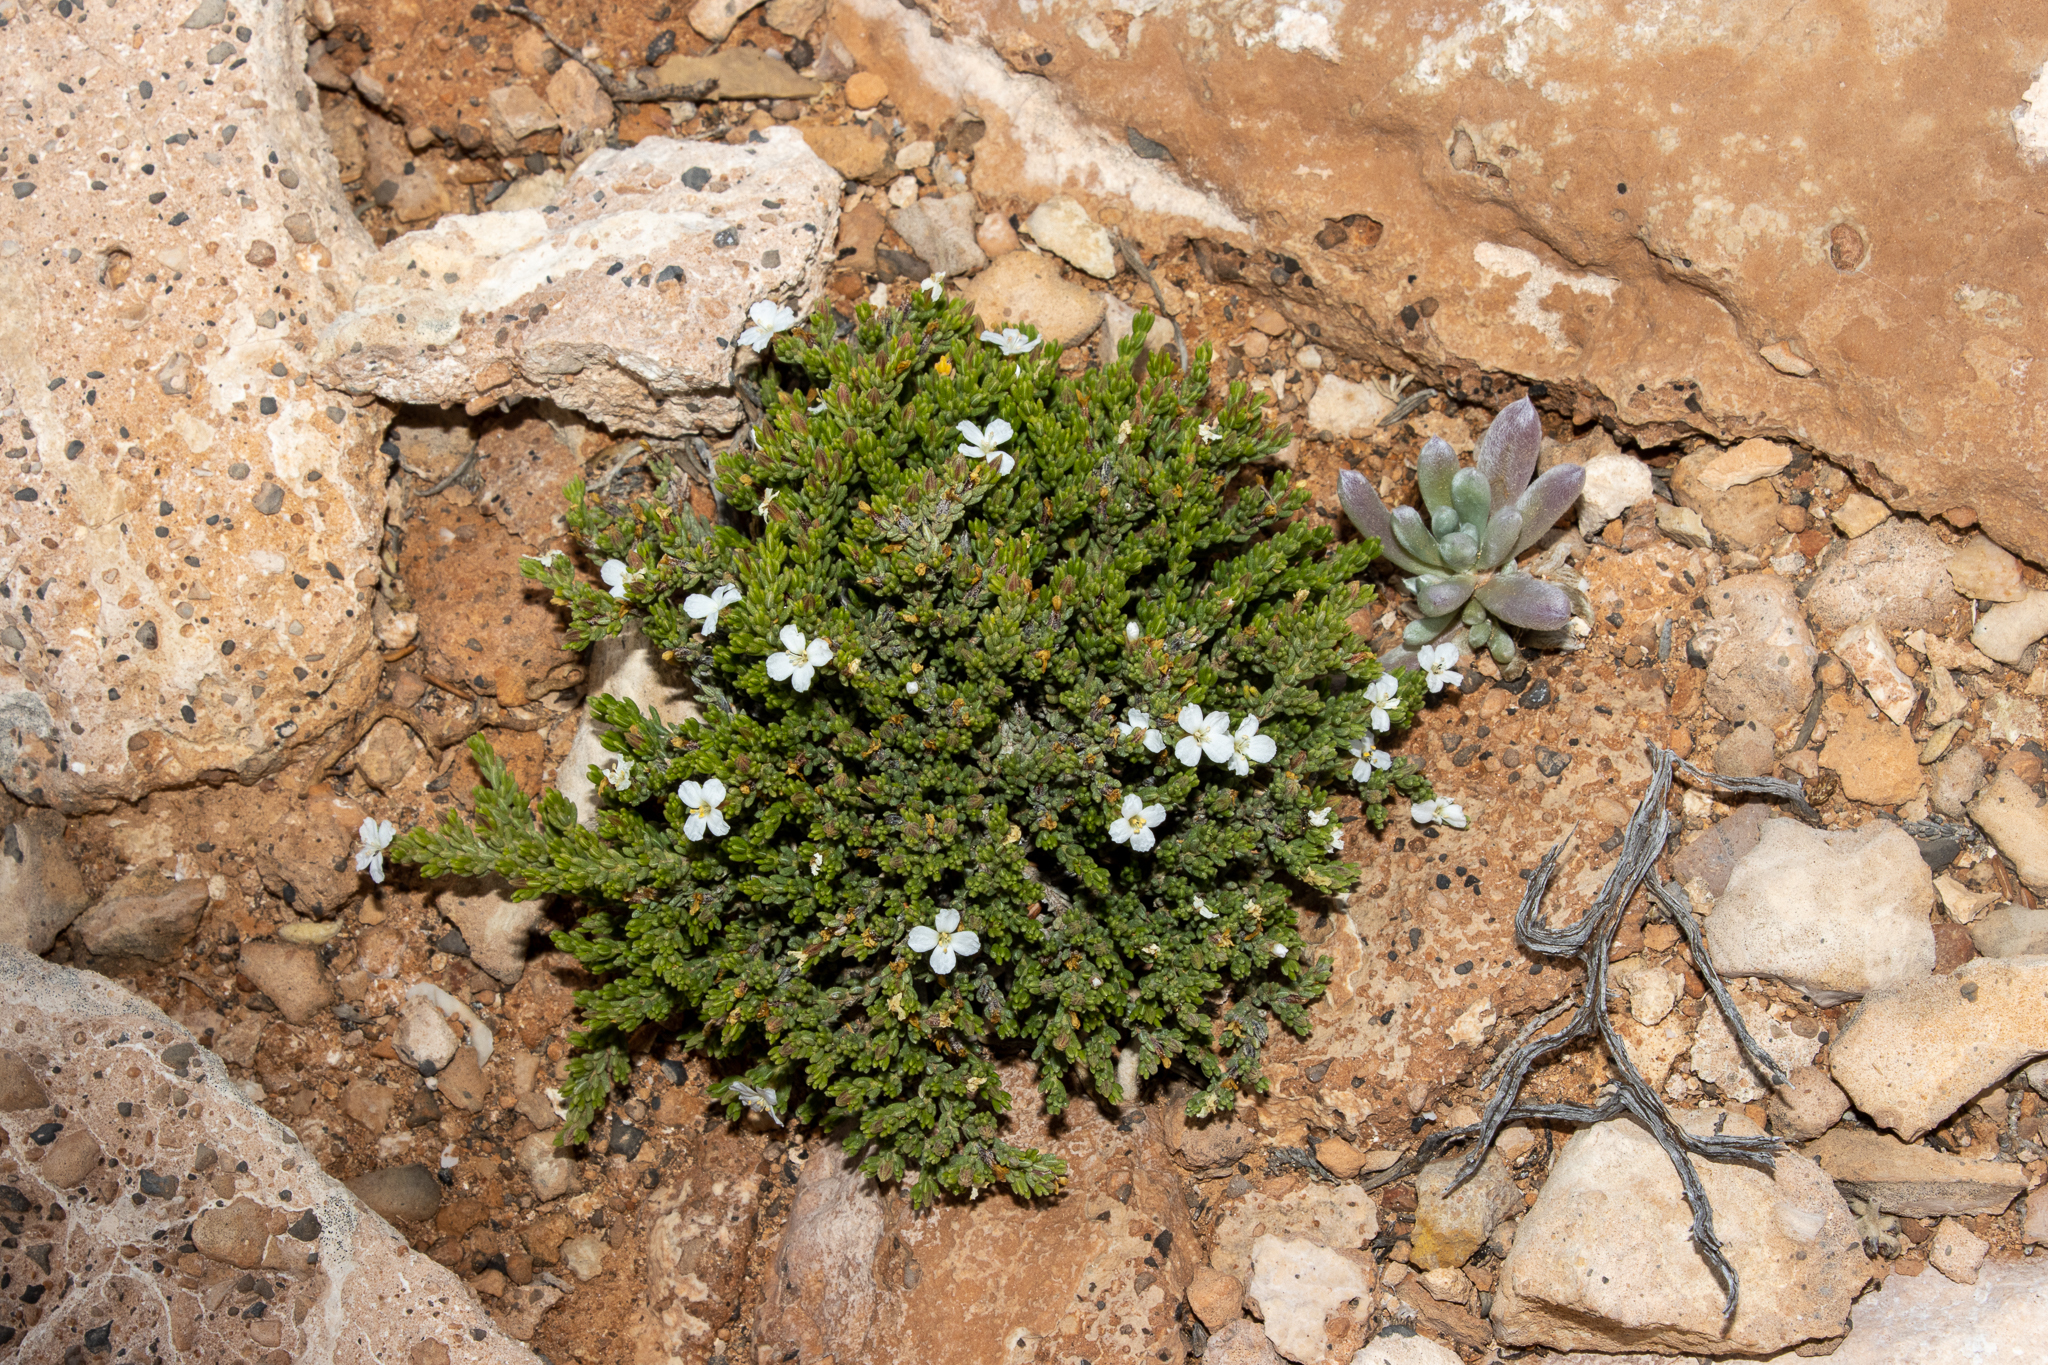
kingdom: Plantae
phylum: Tracheophyta
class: Magnoliopsida
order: Caryophyllales
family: Frankeniaceae
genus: Frankenia
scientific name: Frankenia sessilis
